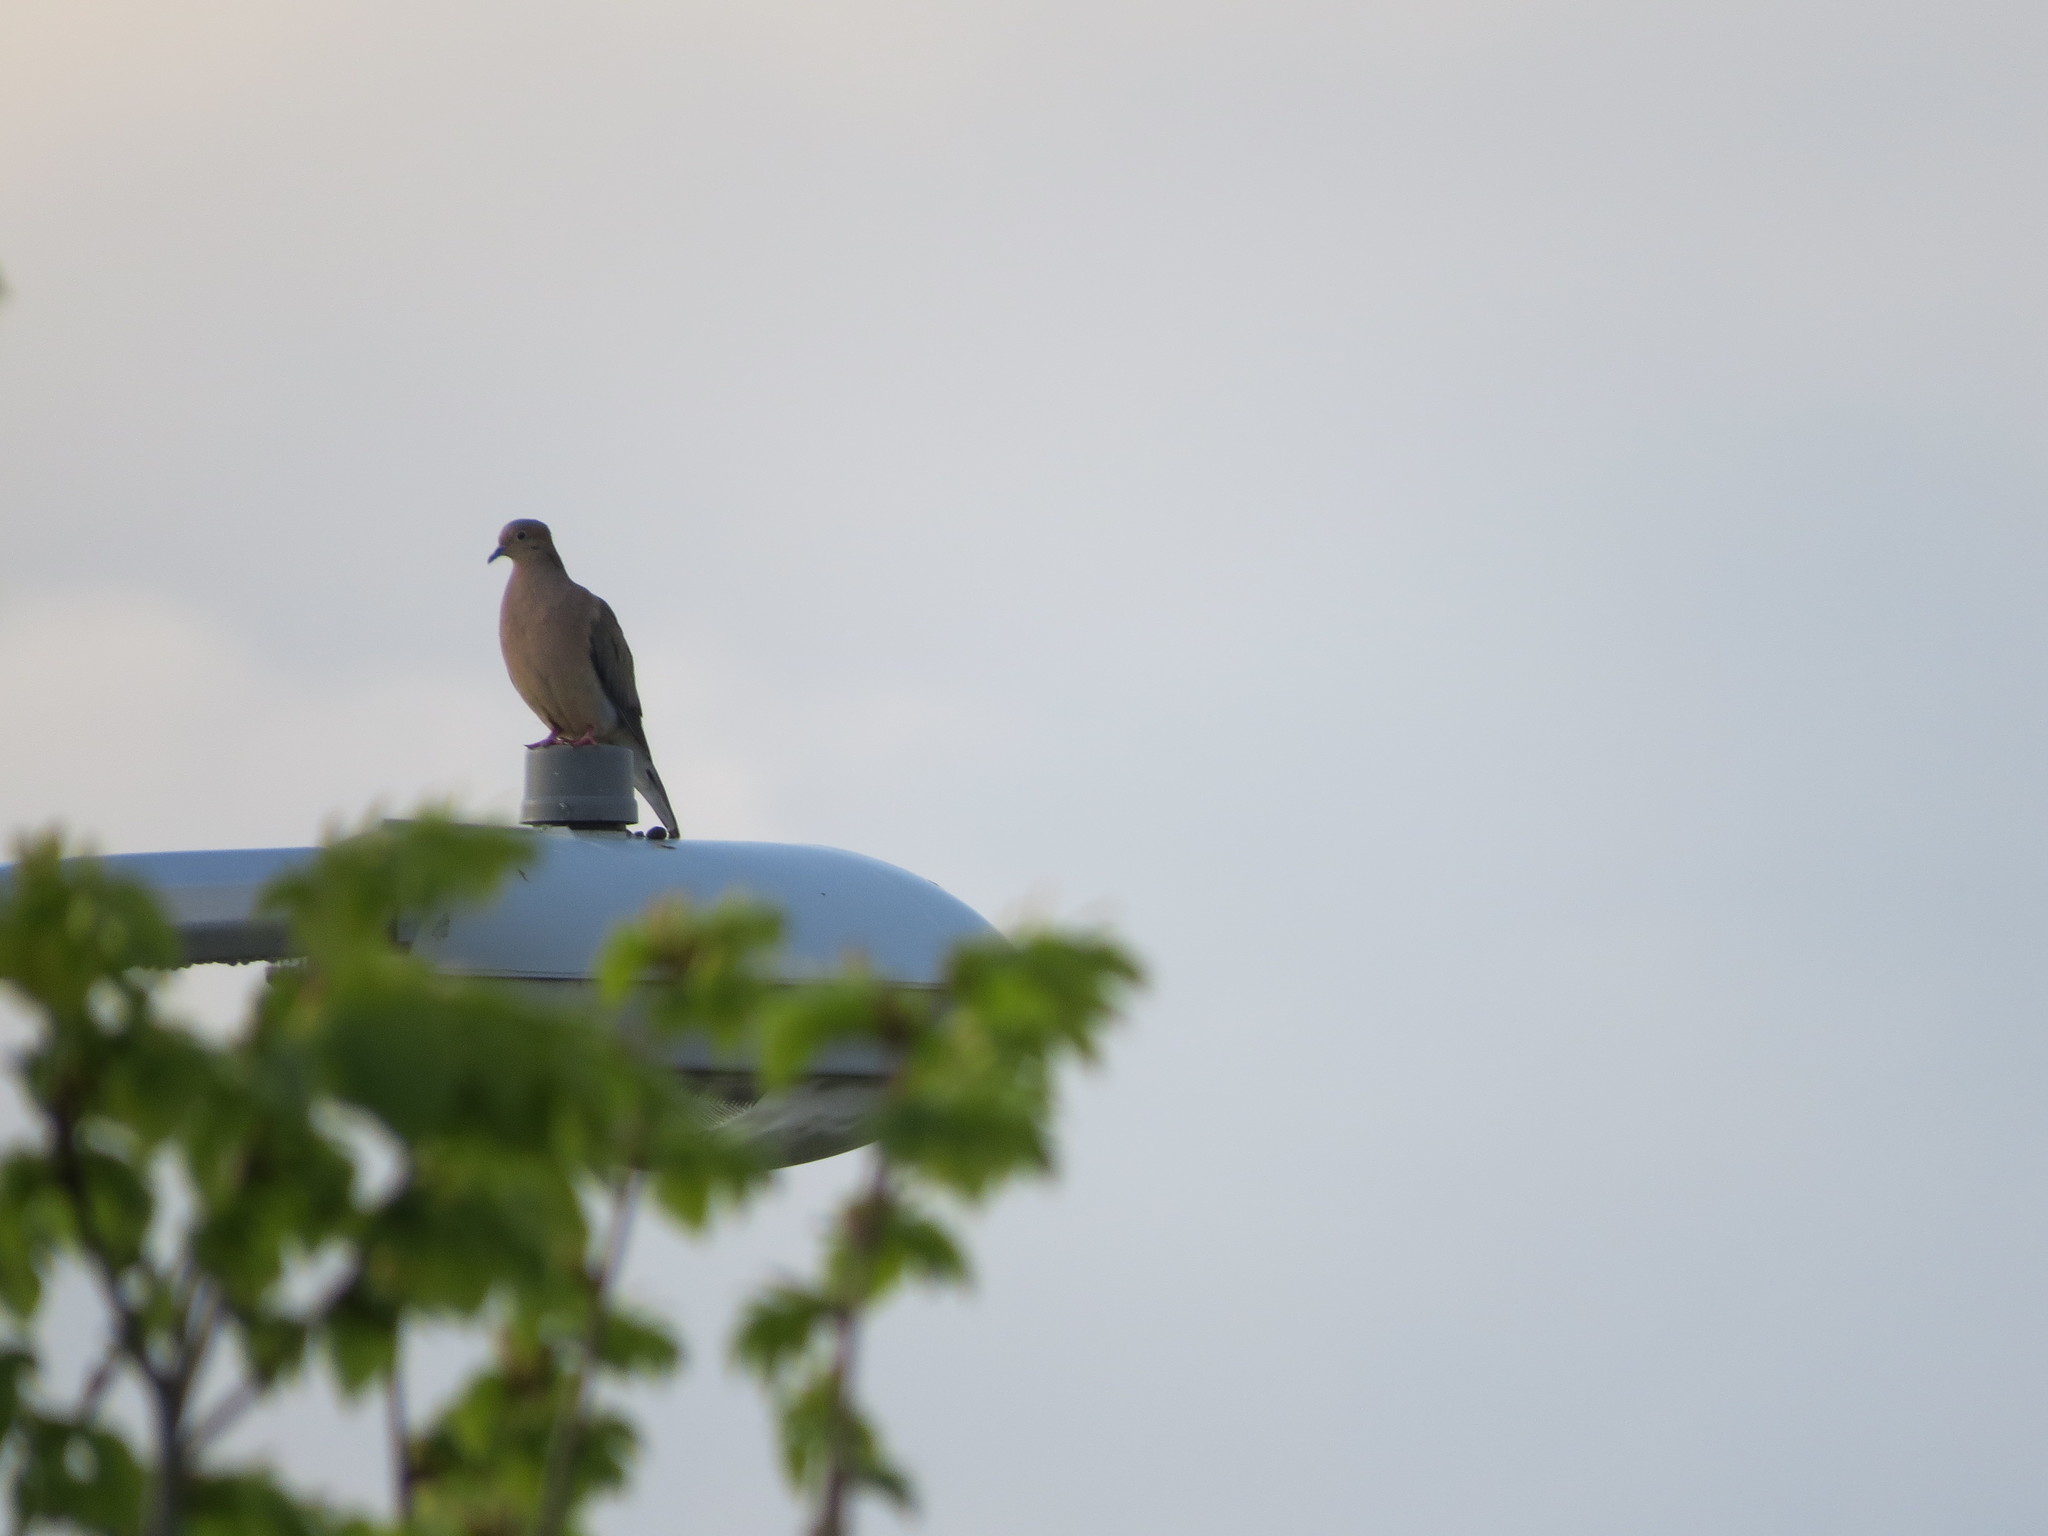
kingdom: Animalia
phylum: Chordata
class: Aves
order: Columbiformes
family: Columbidae
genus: Zenaida
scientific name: Zenaida macroura
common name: Mourning dove
